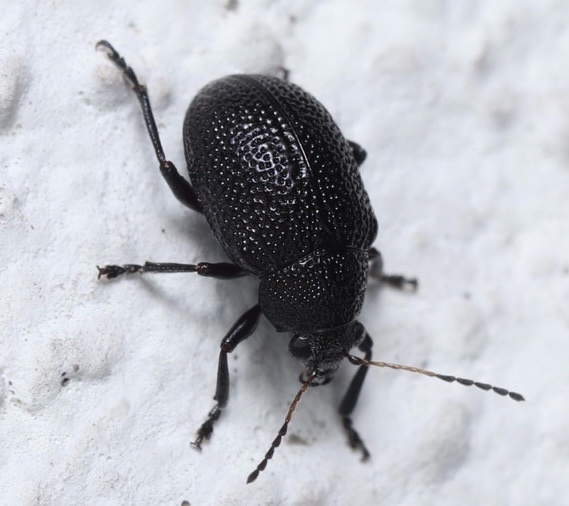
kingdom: Animalia
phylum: Arthropoda
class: Insecta
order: Coleoptera
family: Chrysomelidae
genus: Freudeita
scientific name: Freudeita
